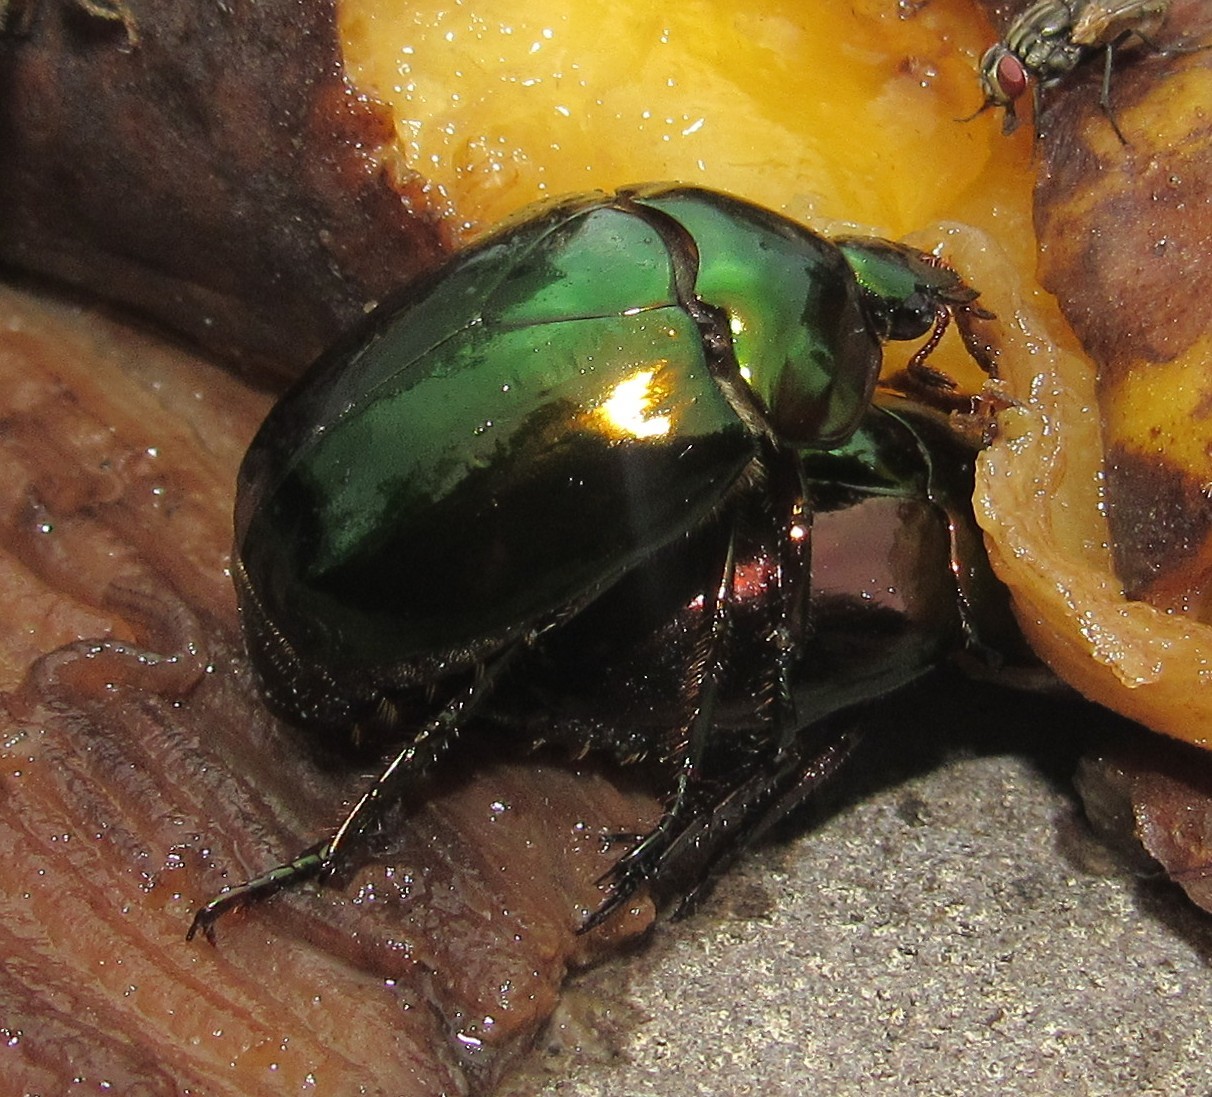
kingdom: Animalia
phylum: Arthropoda
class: Insecta
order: Coleoptera
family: Scarabaeidae
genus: Lagochile
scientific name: Lagochile emarginata
